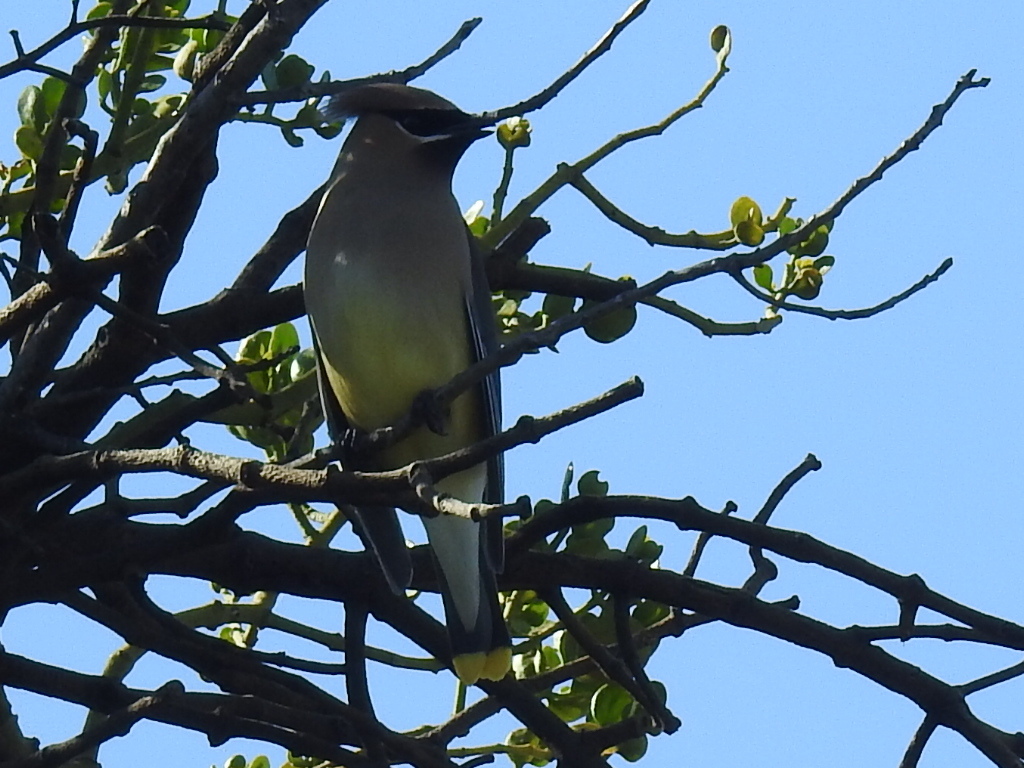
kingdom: Animalia
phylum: Chordata
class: Aves
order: Passeriformes
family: Bombycillidae
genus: Bombycilla
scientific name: Bombycilla cedrorum
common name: Cedar waxwing
